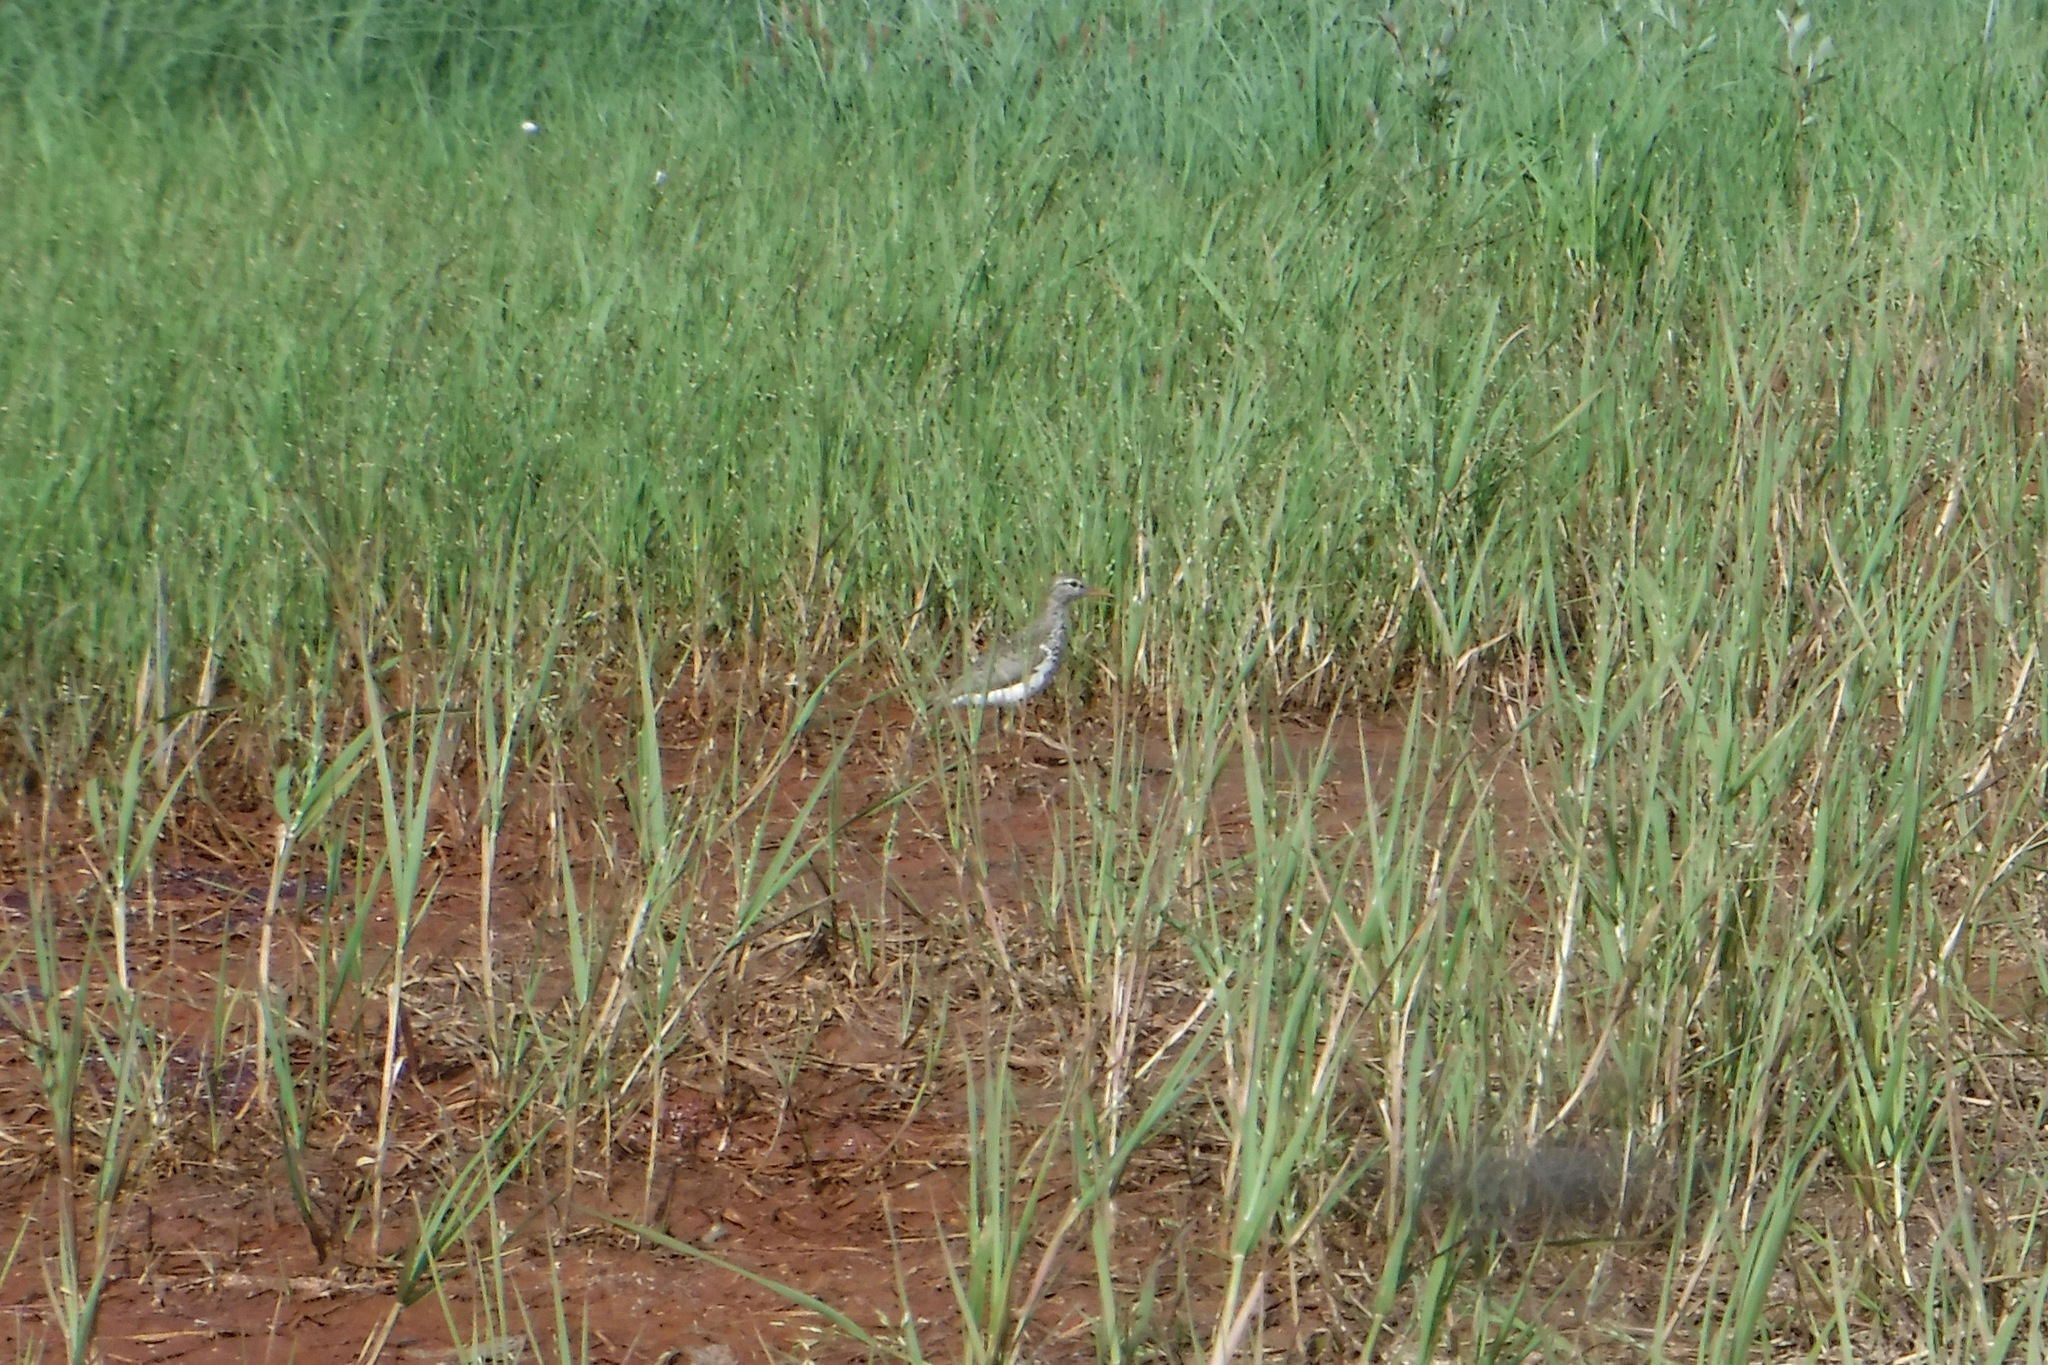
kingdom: Animalia
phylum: Chordata
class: Aves
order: Charadriiformes
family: Scolopacidae
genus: Actitis
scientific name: Actitis macularius
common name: Spotted sandpiper
